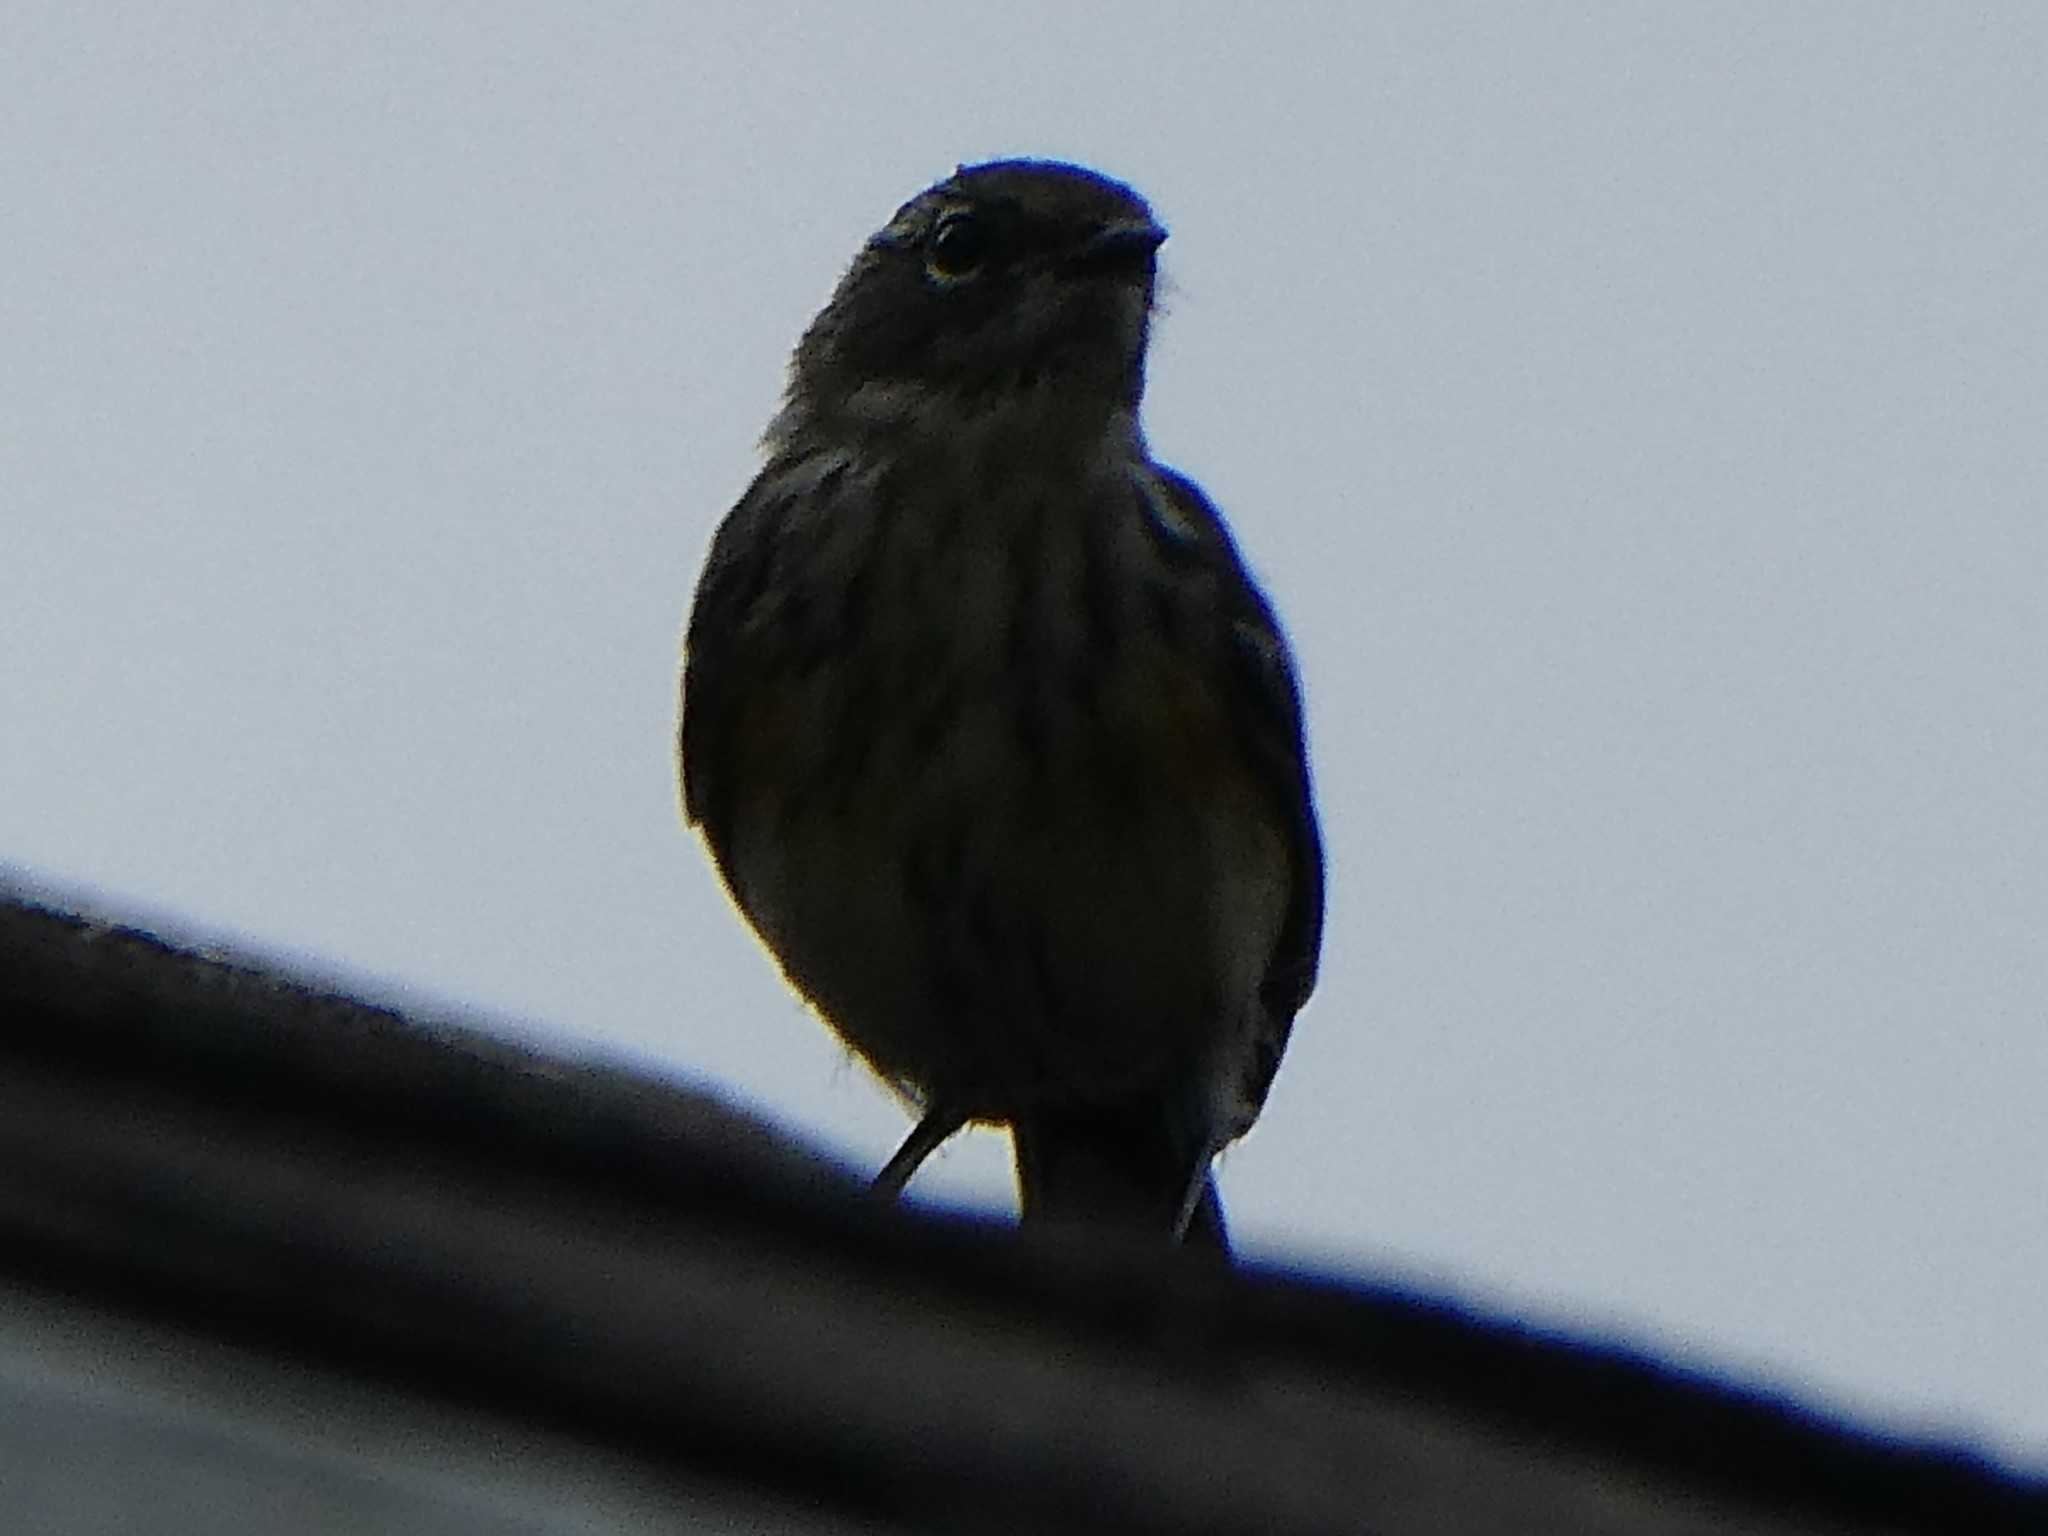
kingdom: Animalia
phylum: Chordata
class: Aves
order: Passeriformes
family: Parulidae
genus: Setophaga
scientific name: Setophaga coronata
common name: Myrtle warbler
